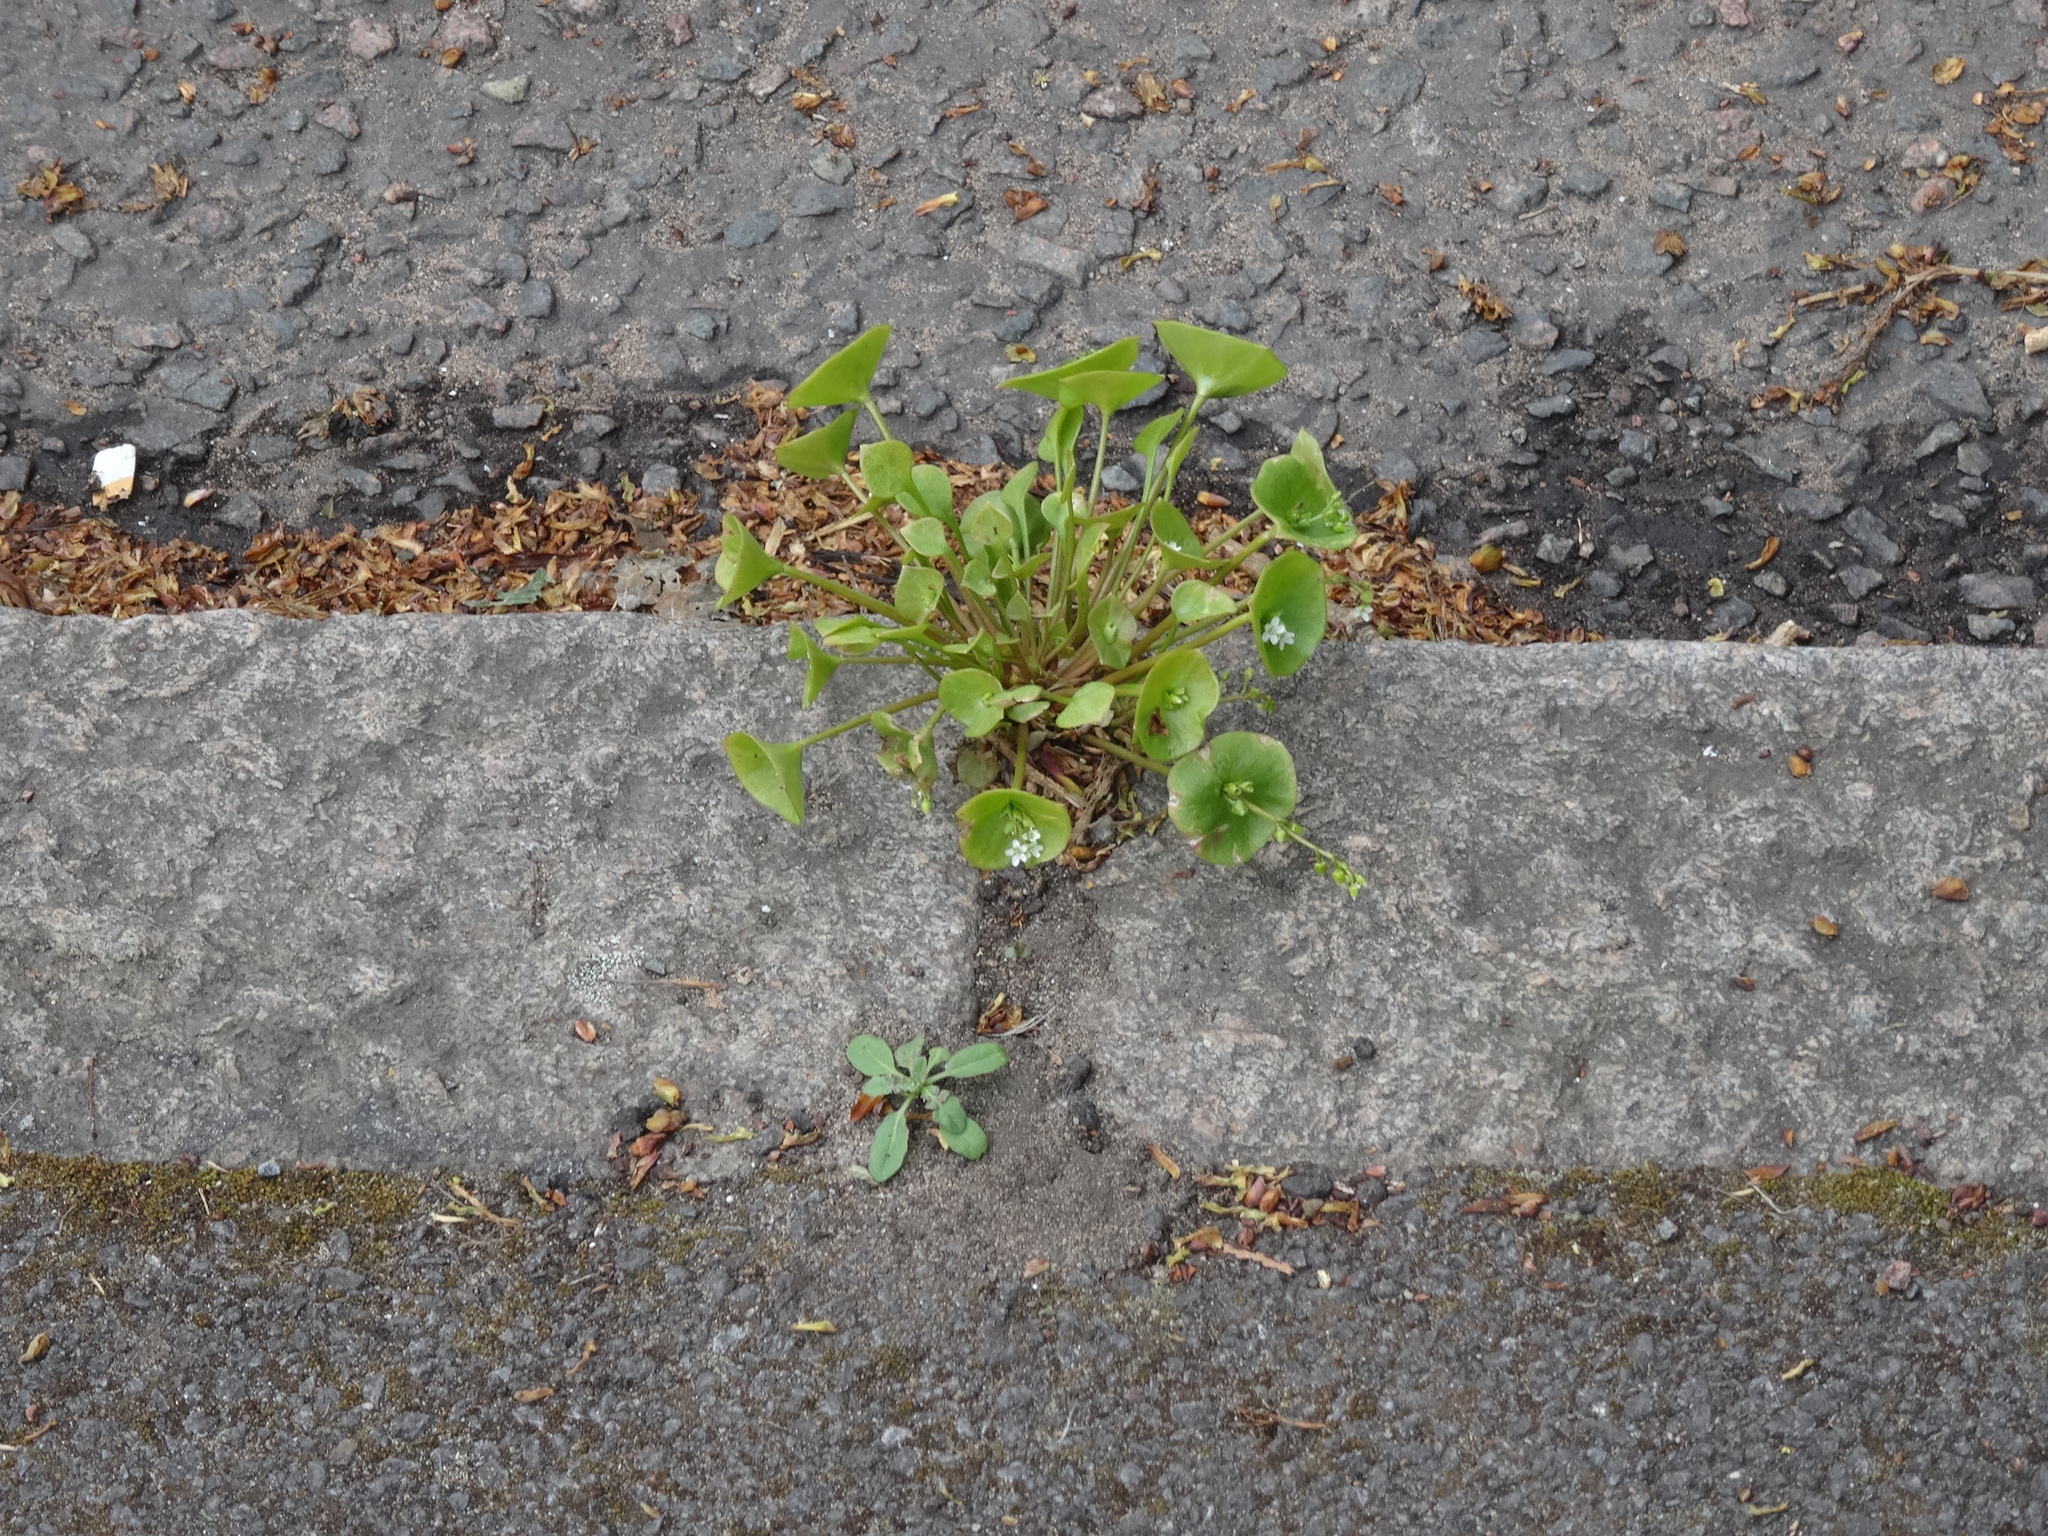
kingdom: Plantae
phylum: Tracheophyta
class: Magnoliopsida
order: Caryophyllales
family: Montiaceae
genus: Claytonia
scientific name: Claytonia perfoliata
